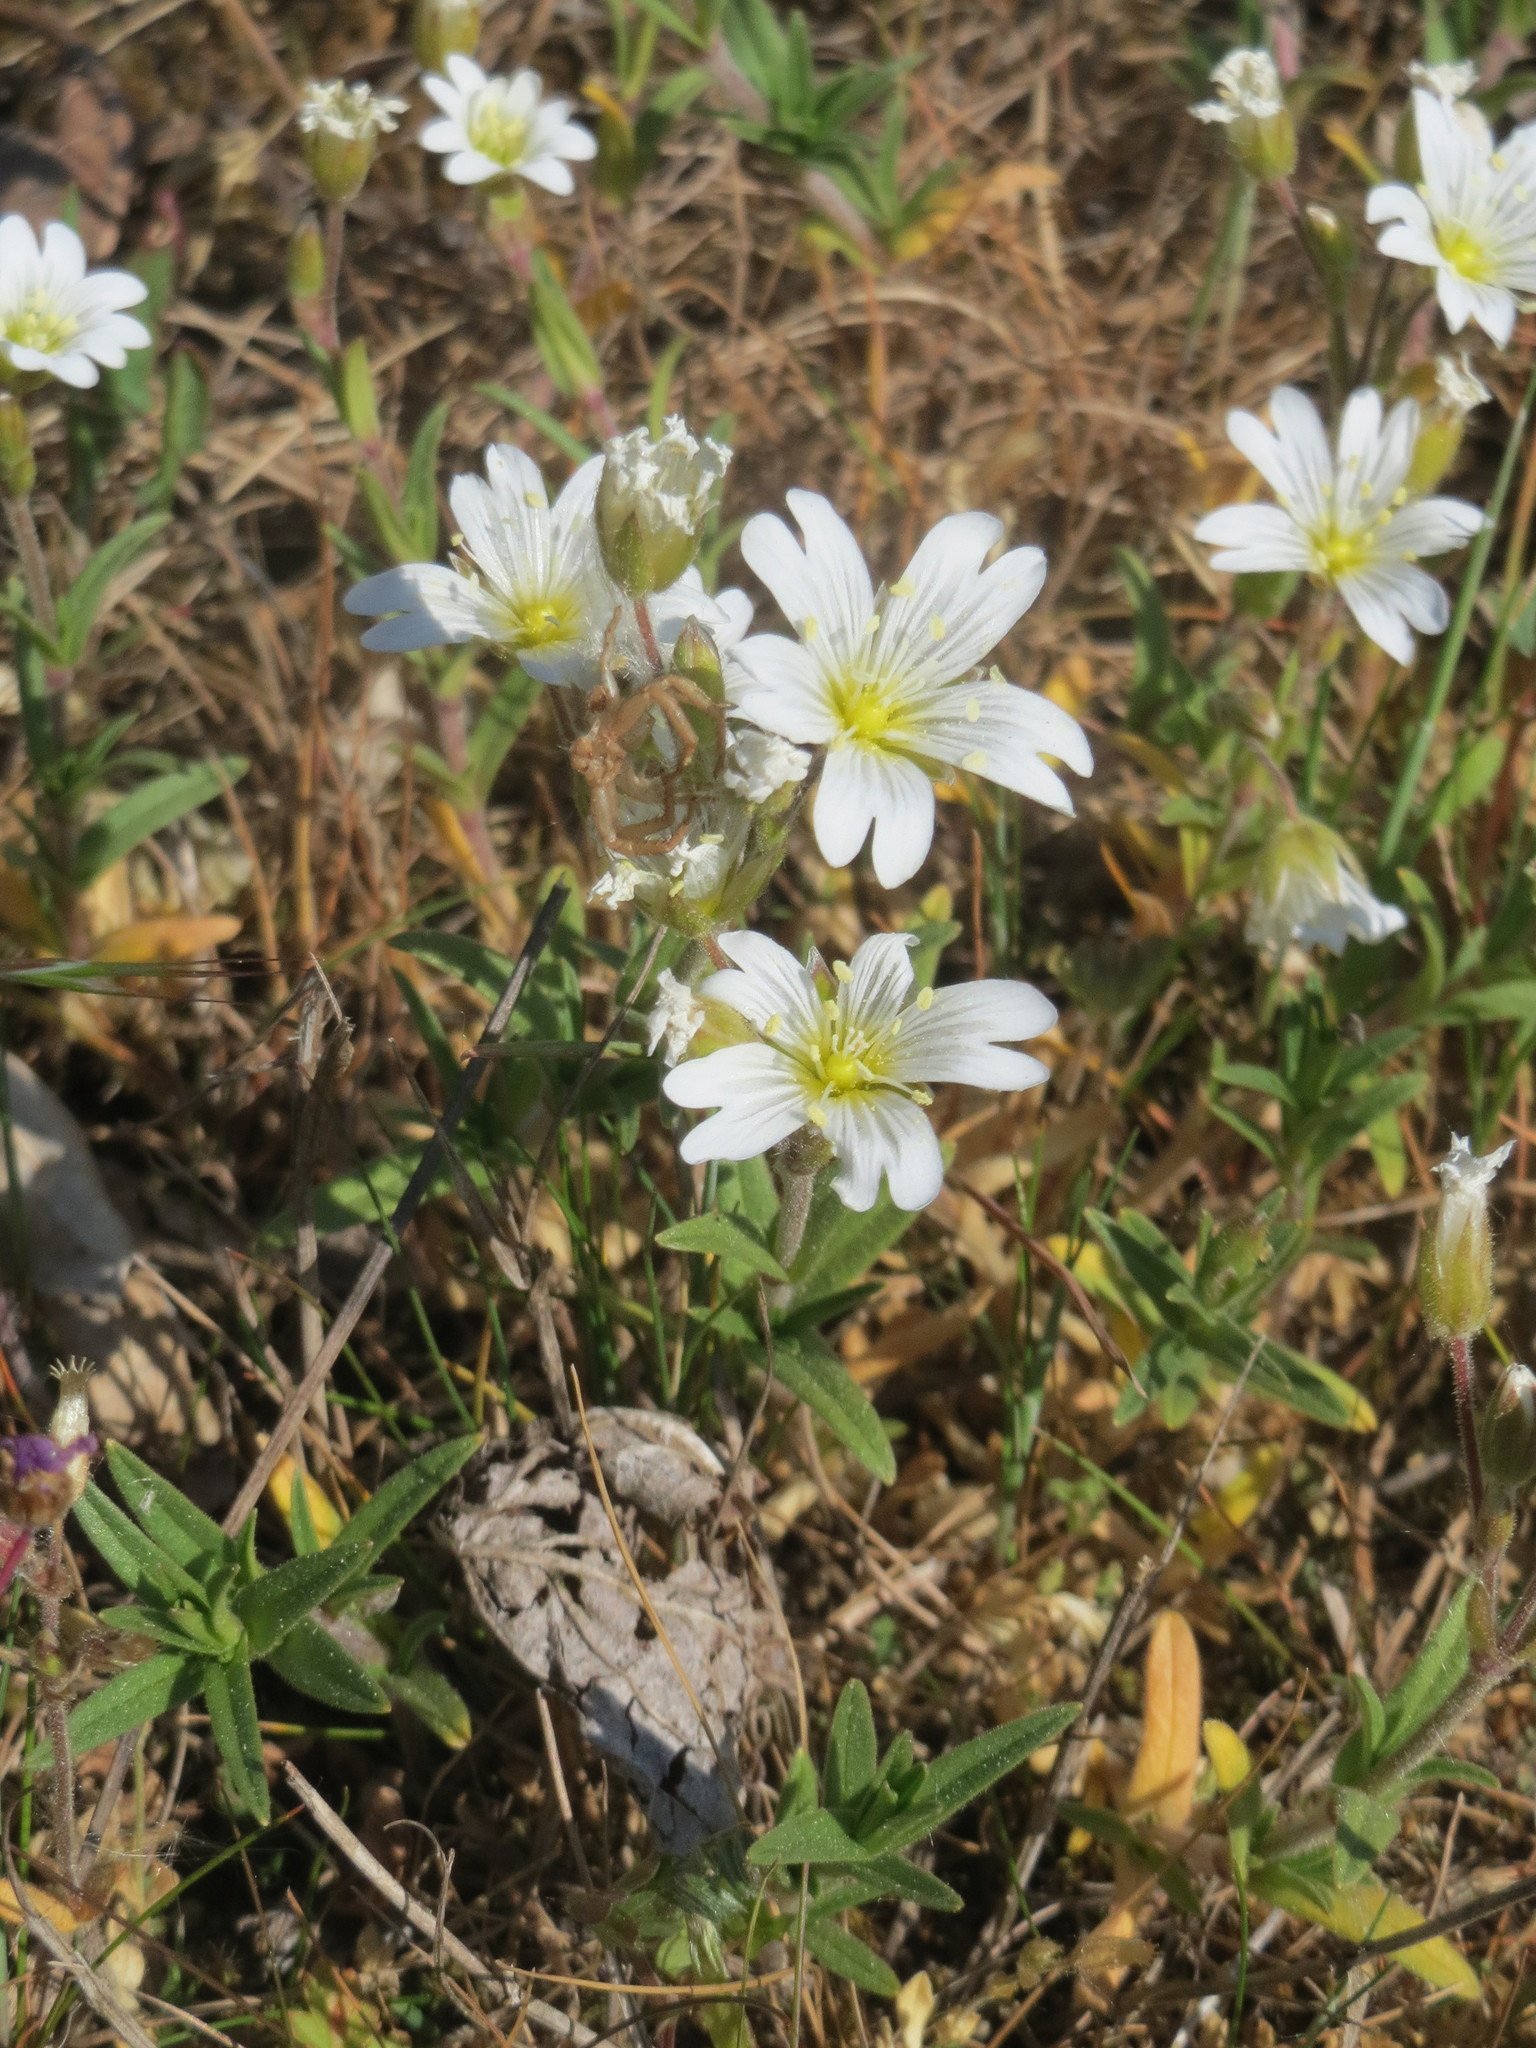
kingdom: Plantae
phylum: Tracheophyta
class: Magnoliopsida
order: Caryophyllales
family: Caryophyllaceae
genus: Cerastium
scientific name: Cerastium arvense
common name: Field mouse-ear
